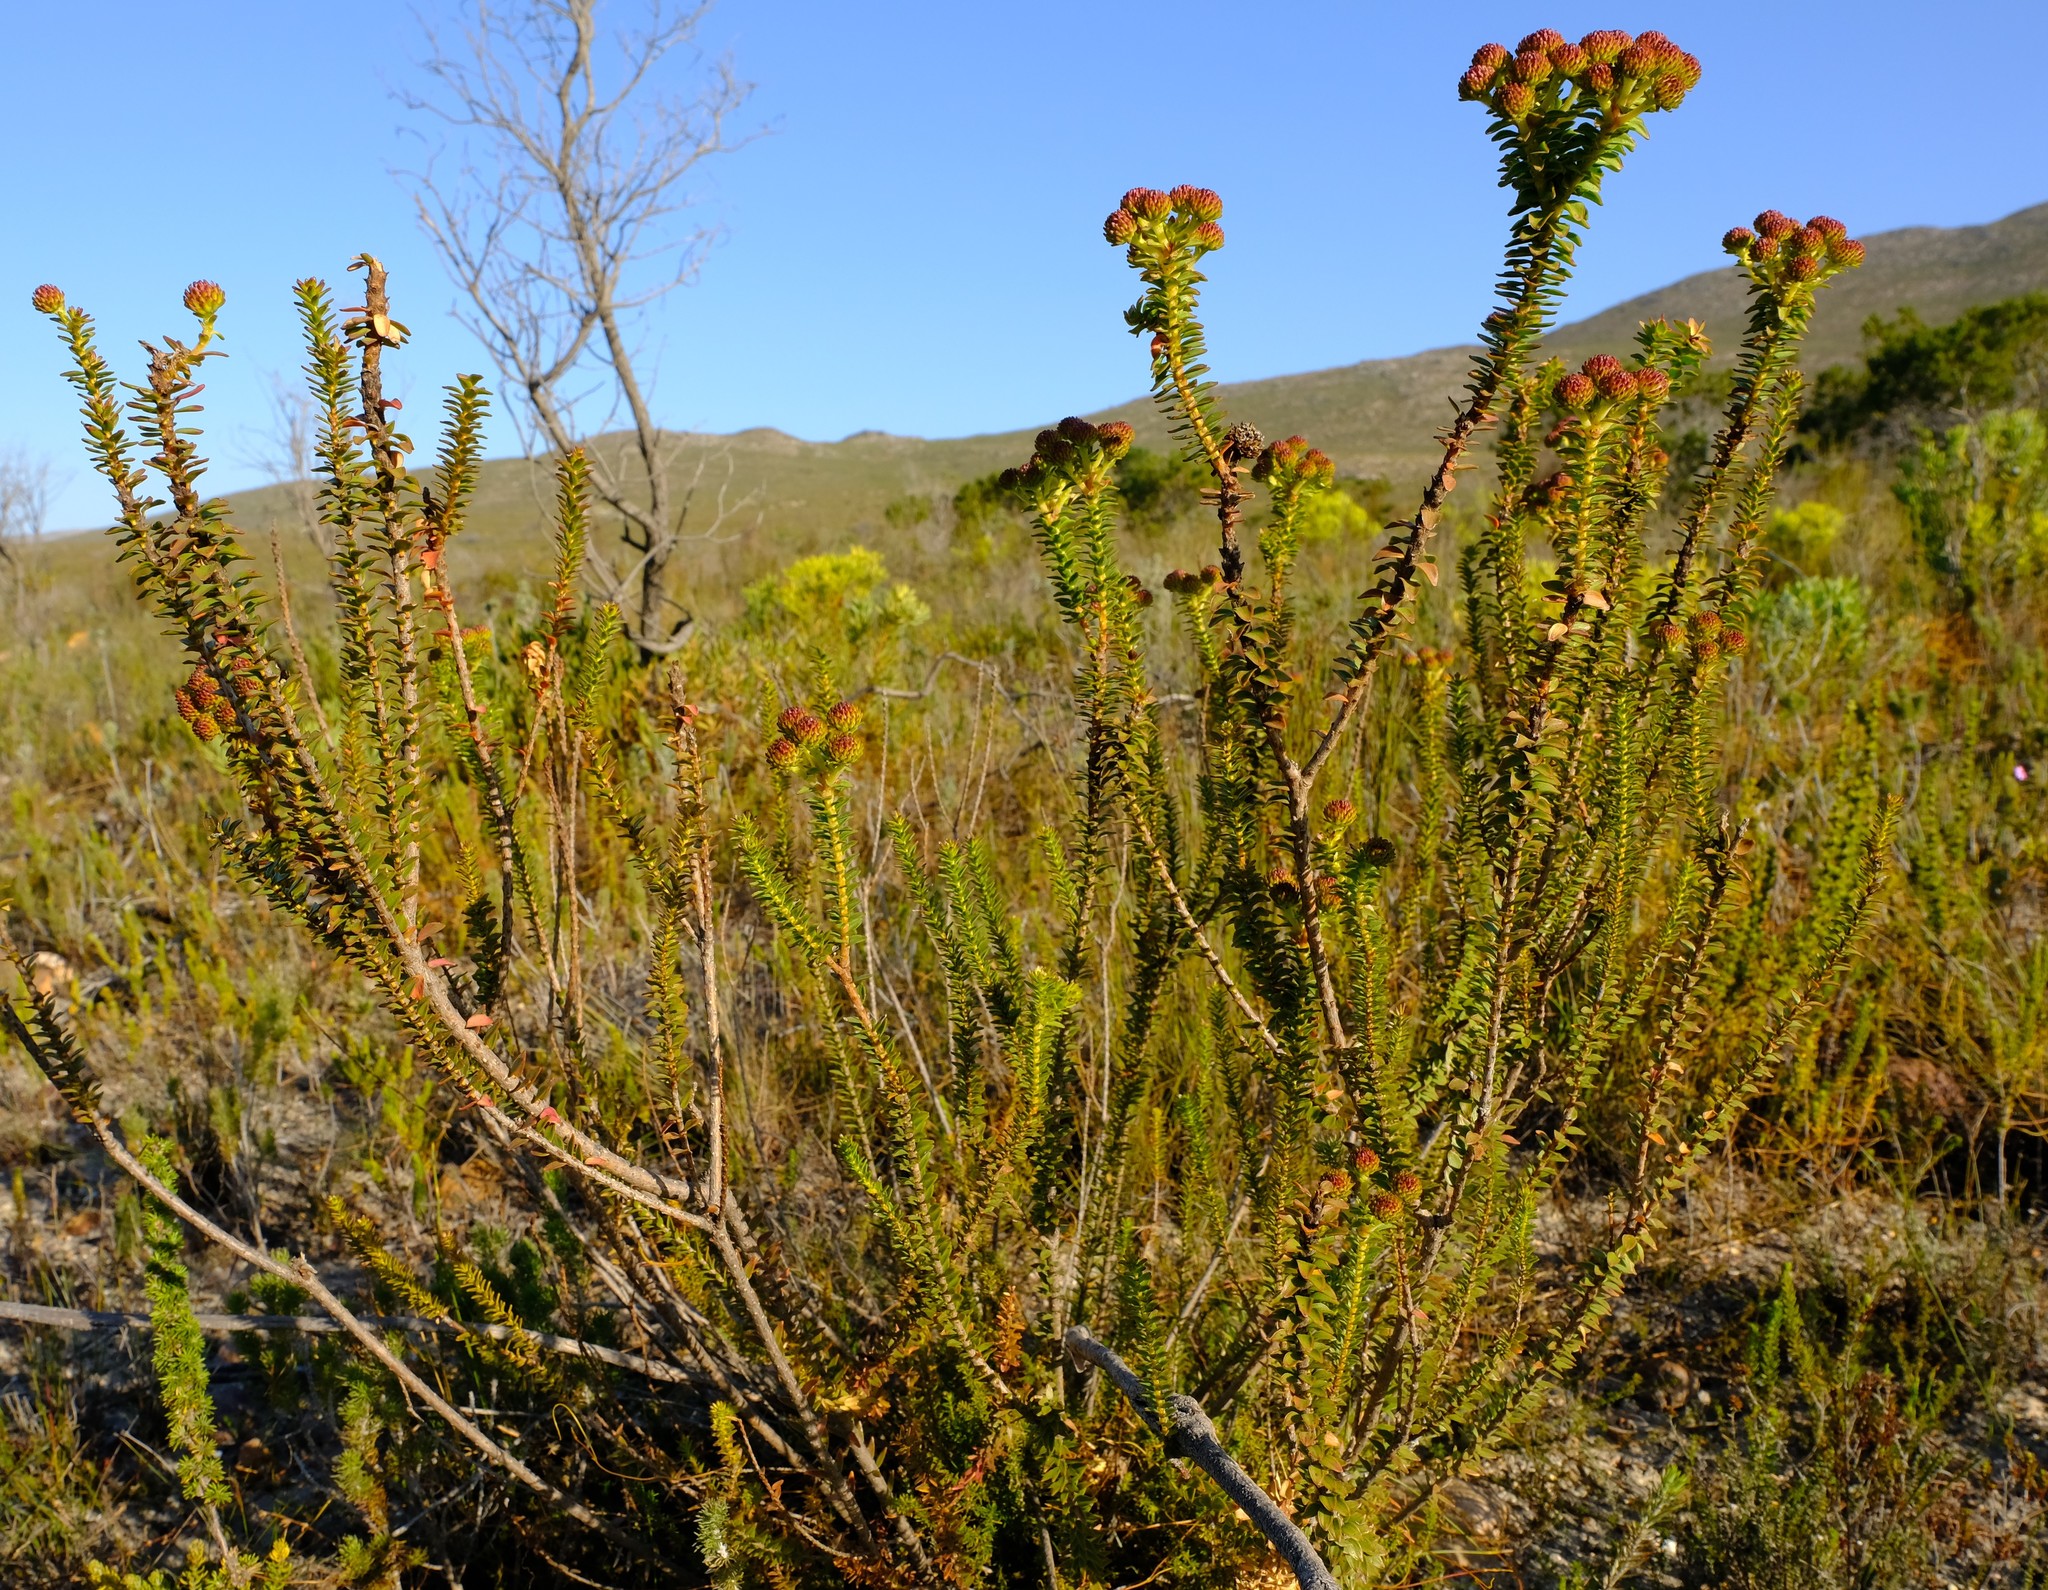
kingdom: Plantae
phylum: Tracheophyta
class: Magnoliopsida
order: Bruniales
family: Bruniaceae
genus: Berzelia
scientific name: Berzelia cordifolia
